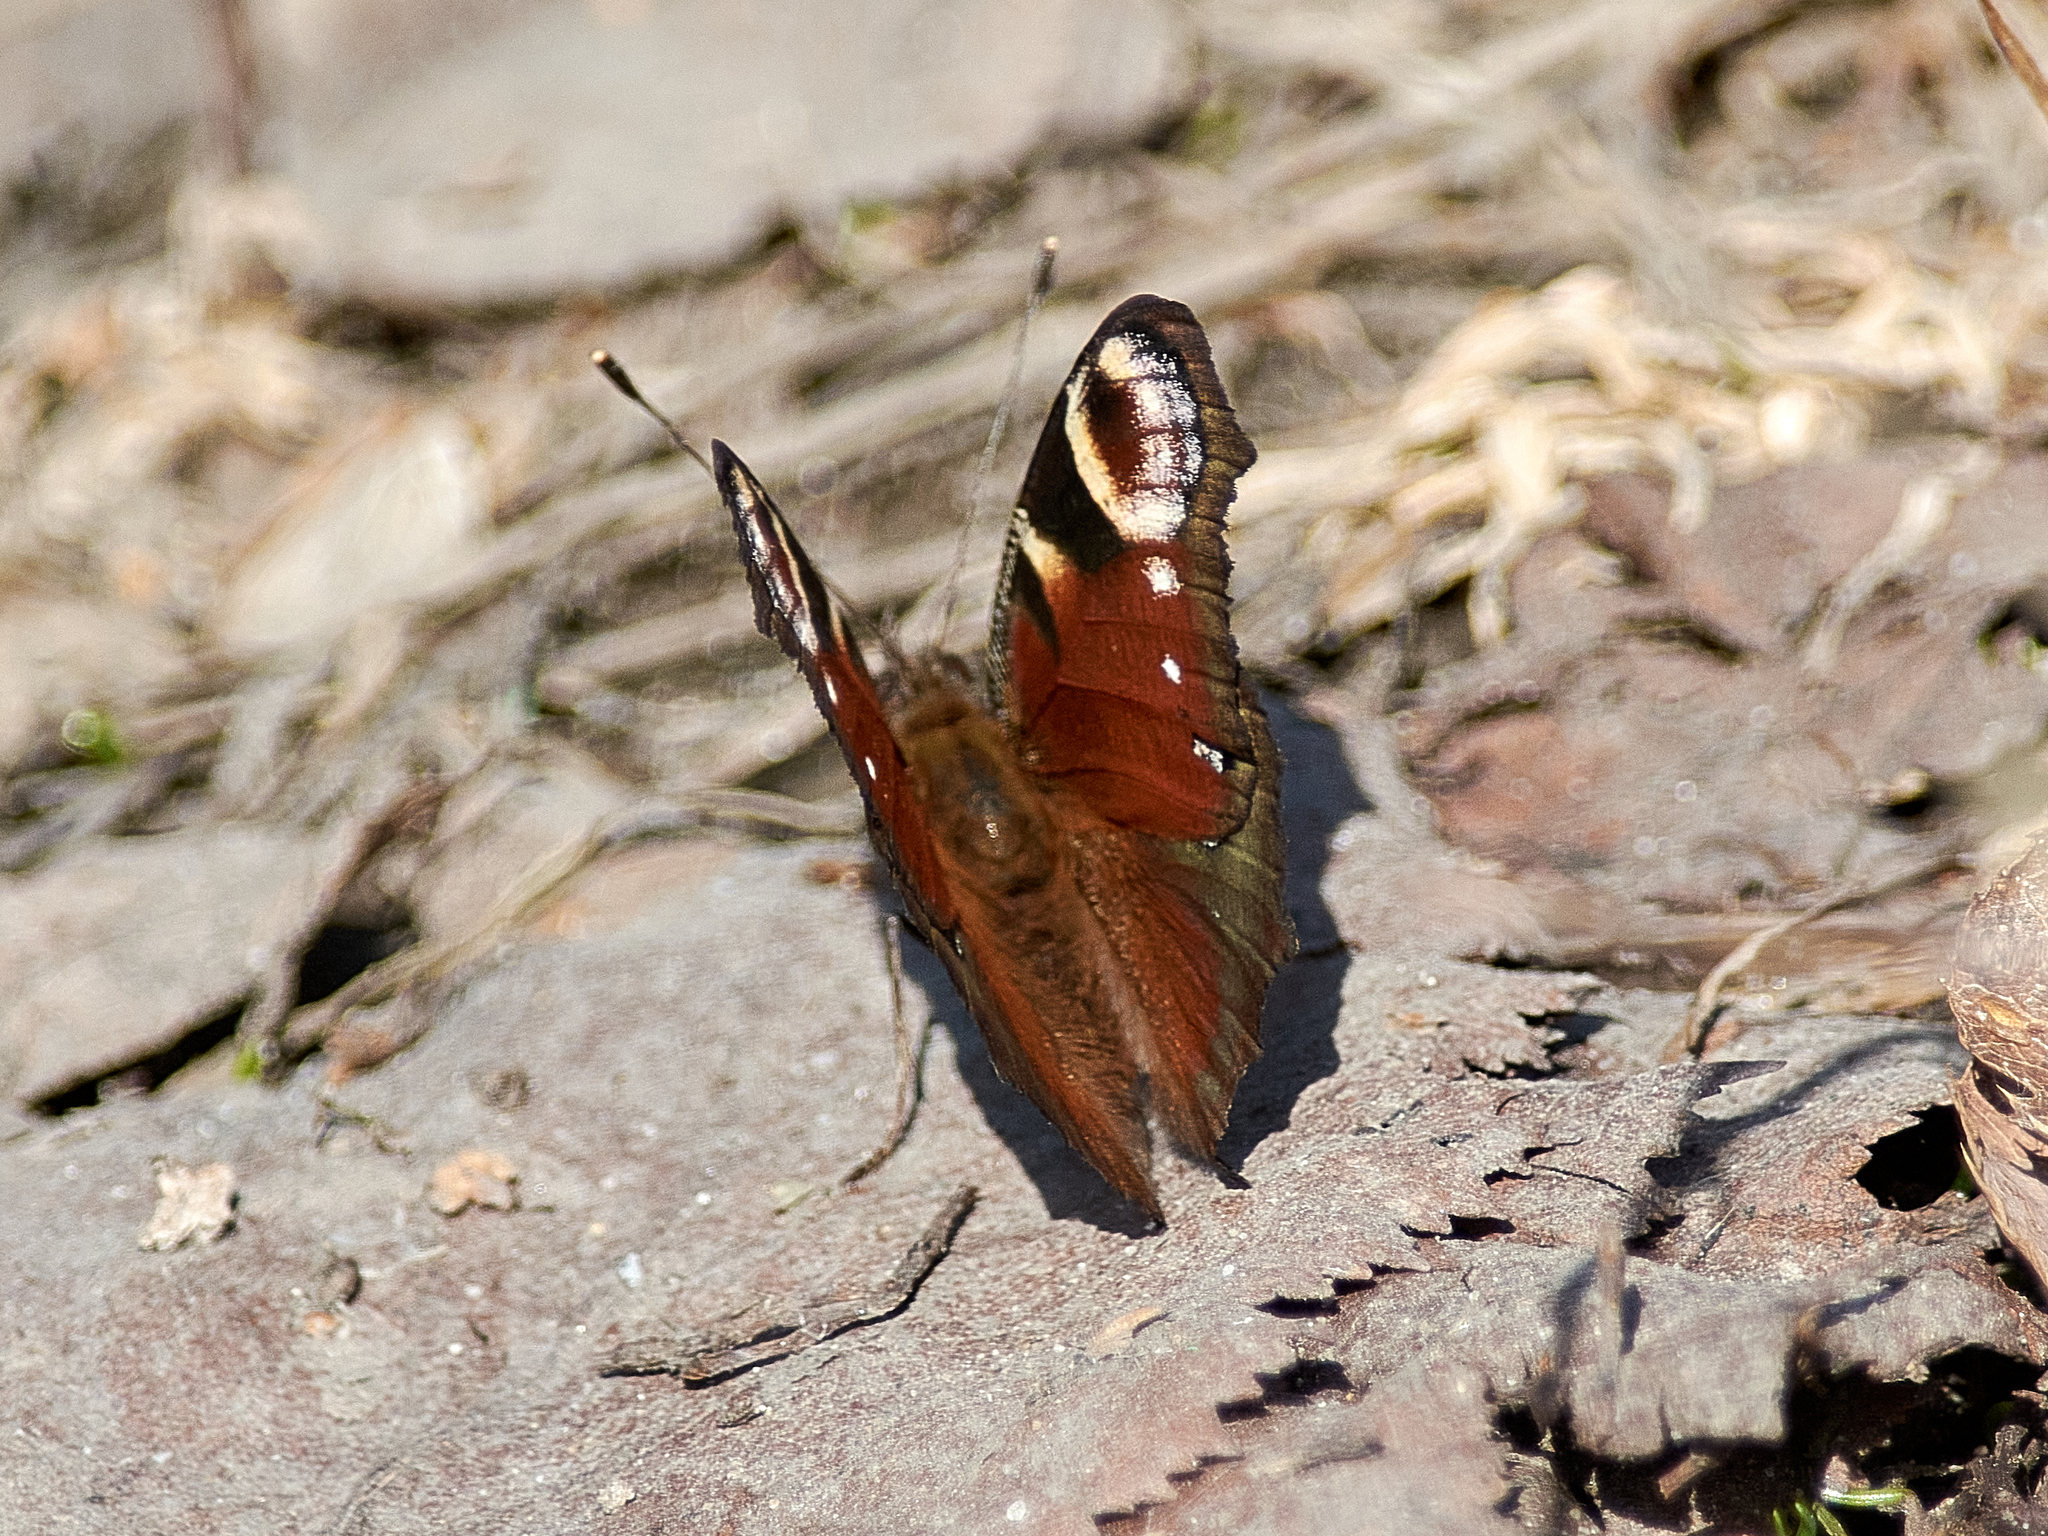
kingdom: Animalia
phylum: Arthropoda
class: Insecta
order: Lepidoptera
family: Nymphalidae
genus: Aglais
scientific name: Aglais io
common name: Peacock
